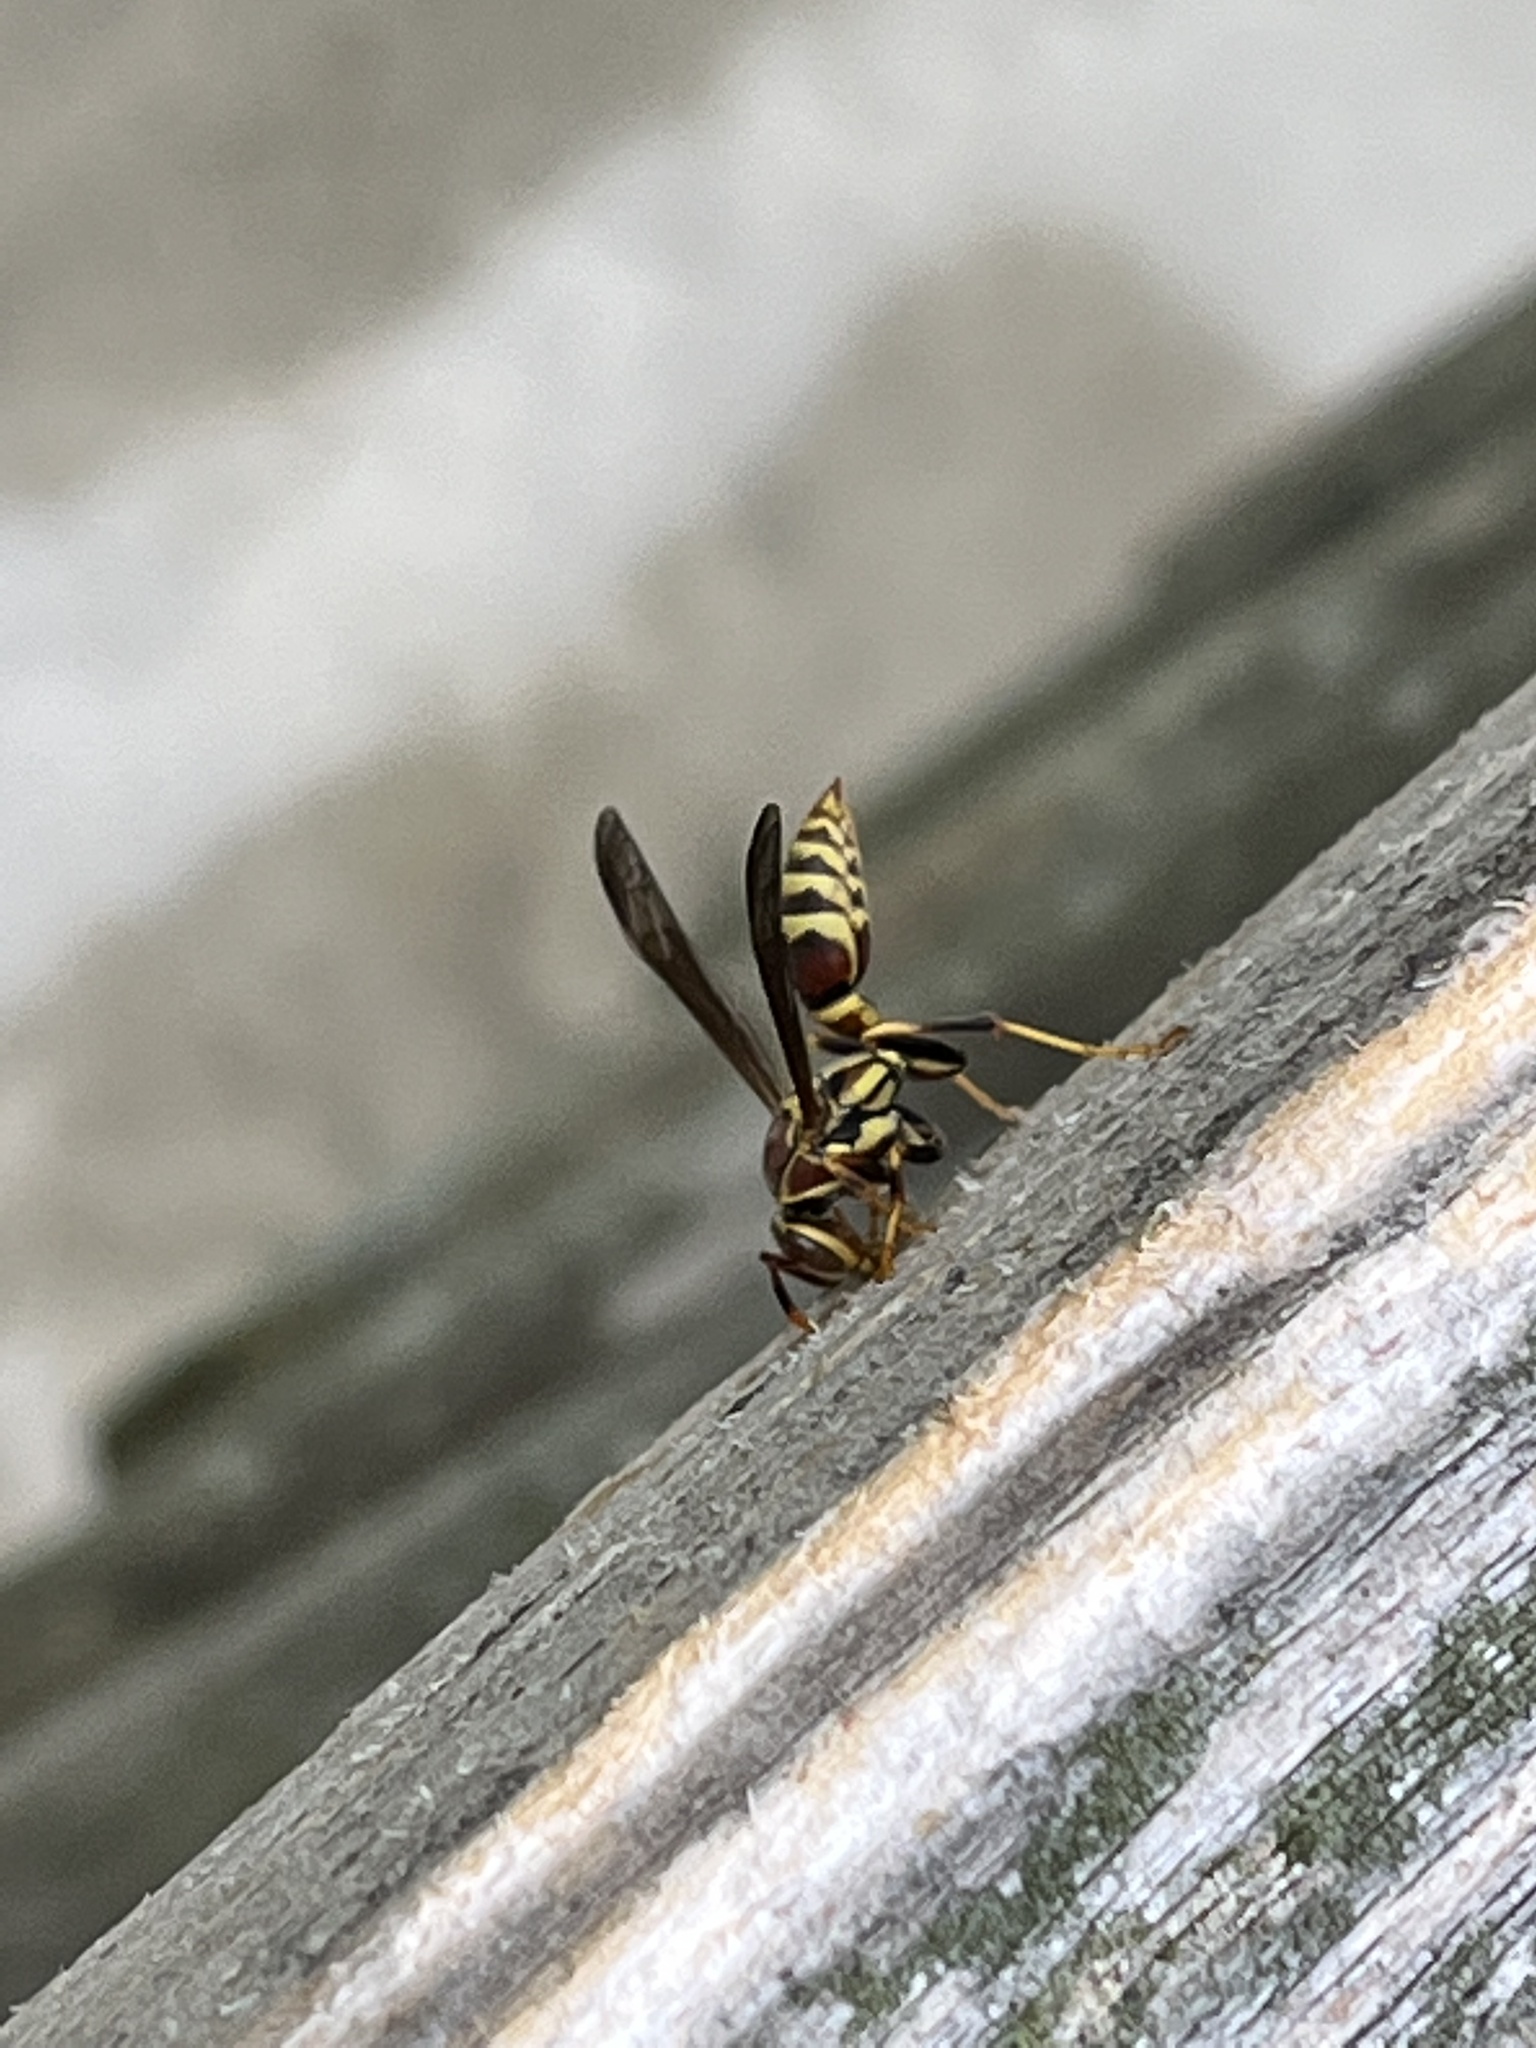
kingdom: Animalia
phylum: Arthropoda
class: Insecta
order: Hymenoptera
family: Eumenidae
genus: Polistes
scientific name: Polistes exclamans
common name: Paper wasp
